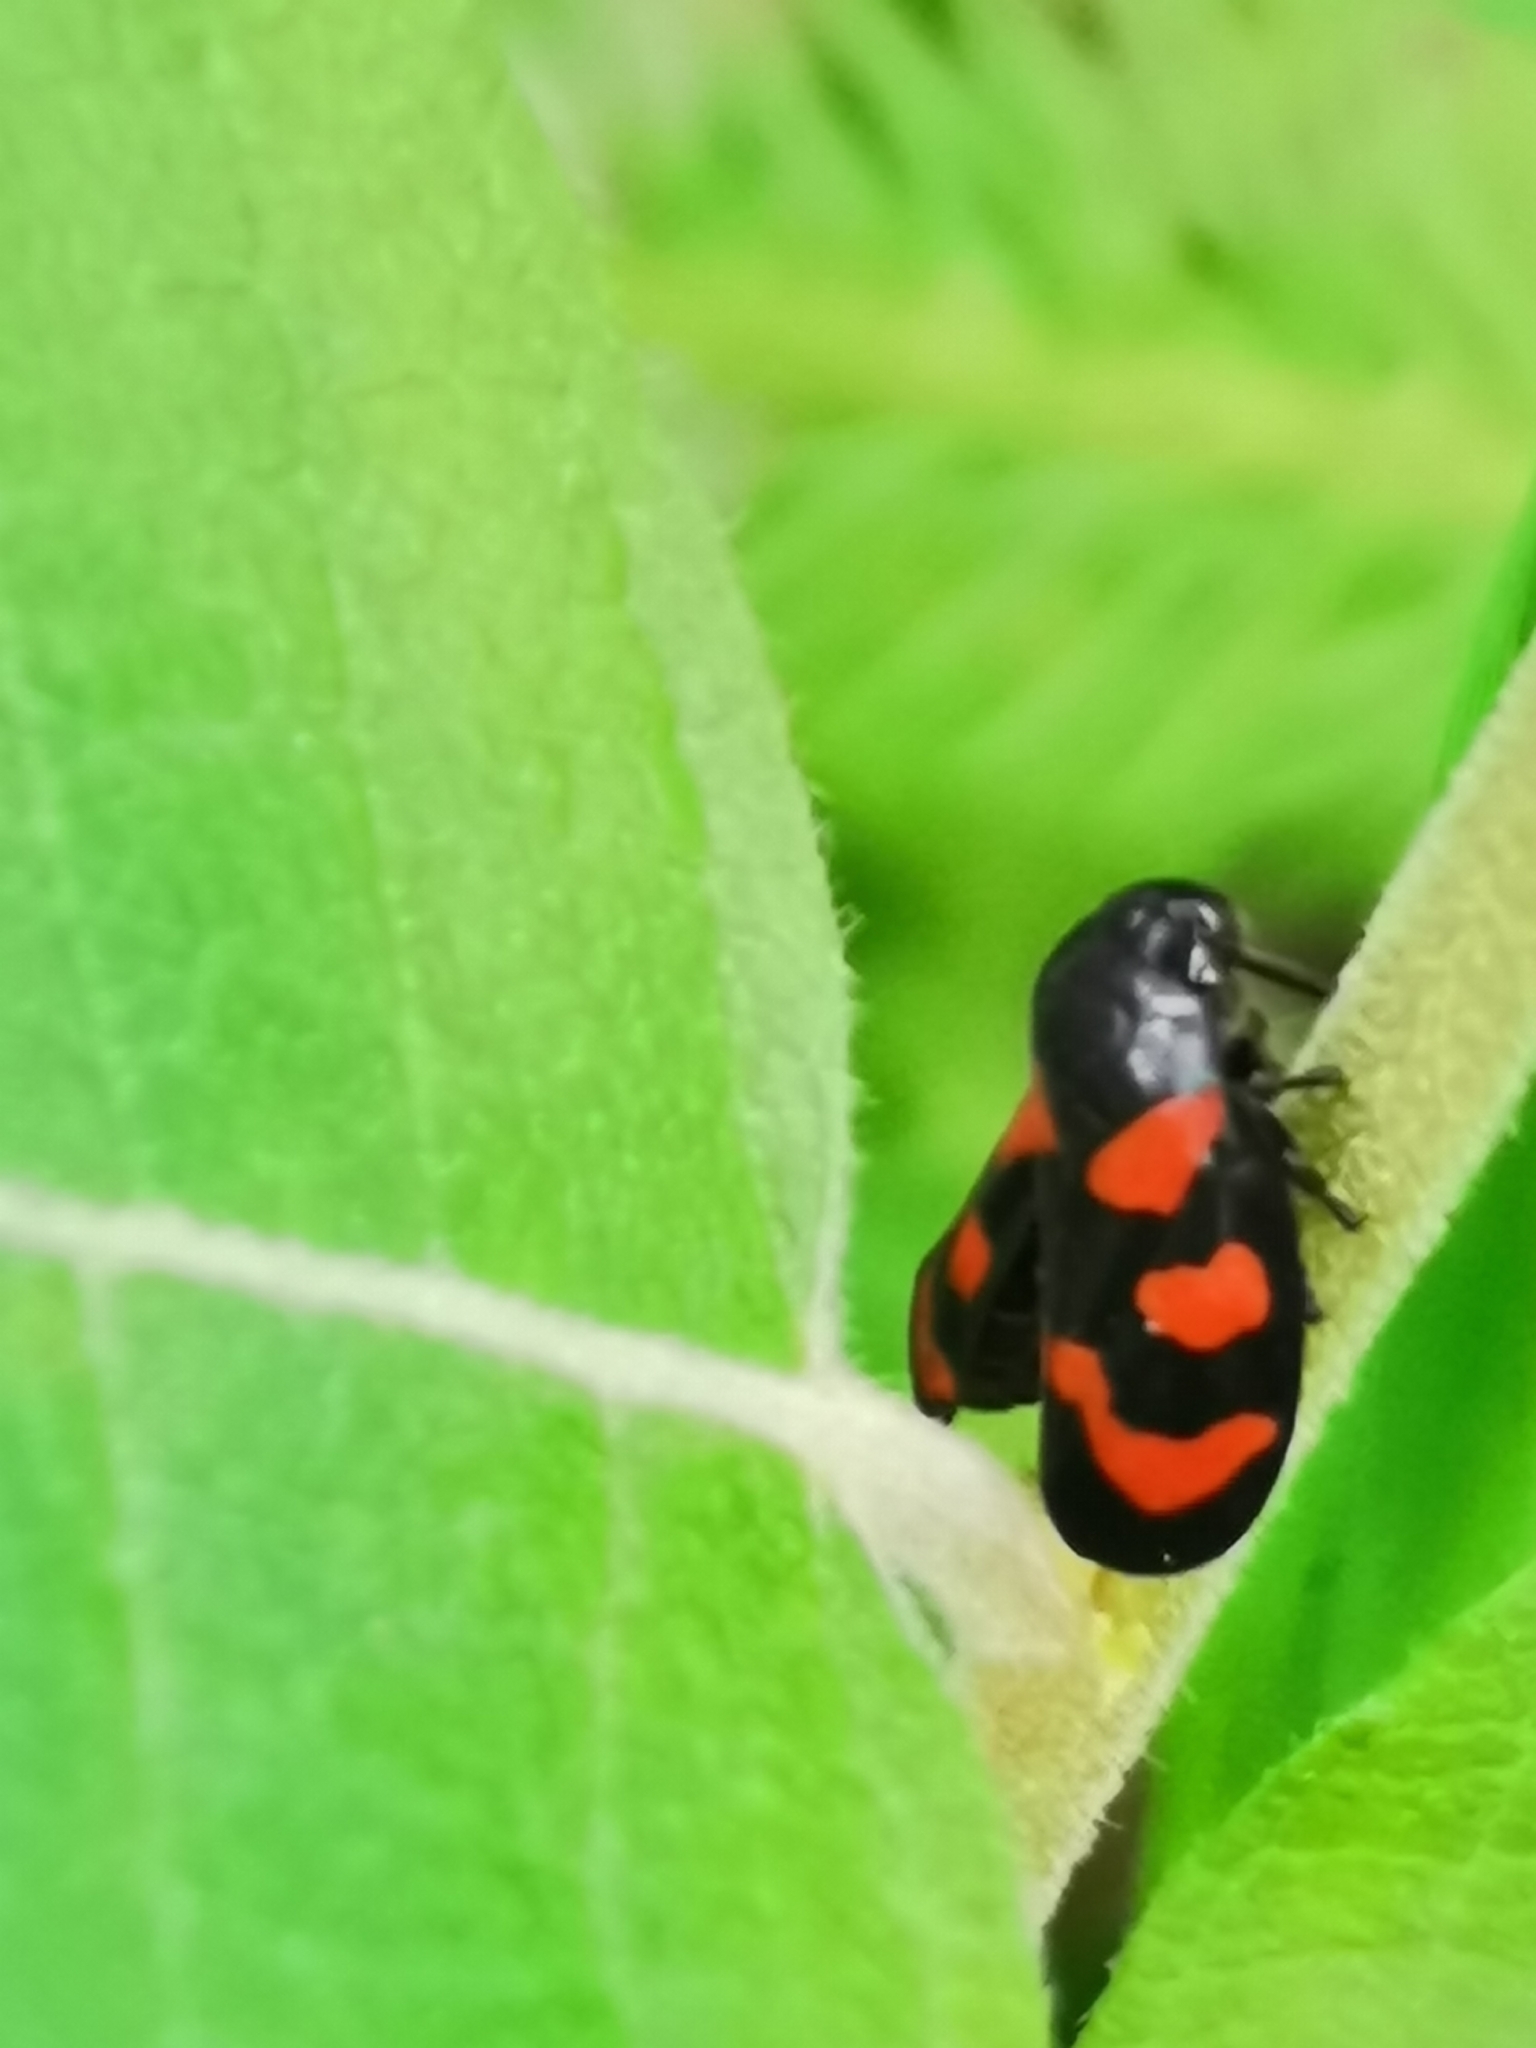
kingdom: Animalia
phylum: Arthropoda
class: Insecta
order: Hemiptera
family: Cercopidae
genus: Cercopis
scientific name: Cercopis vulnerata
